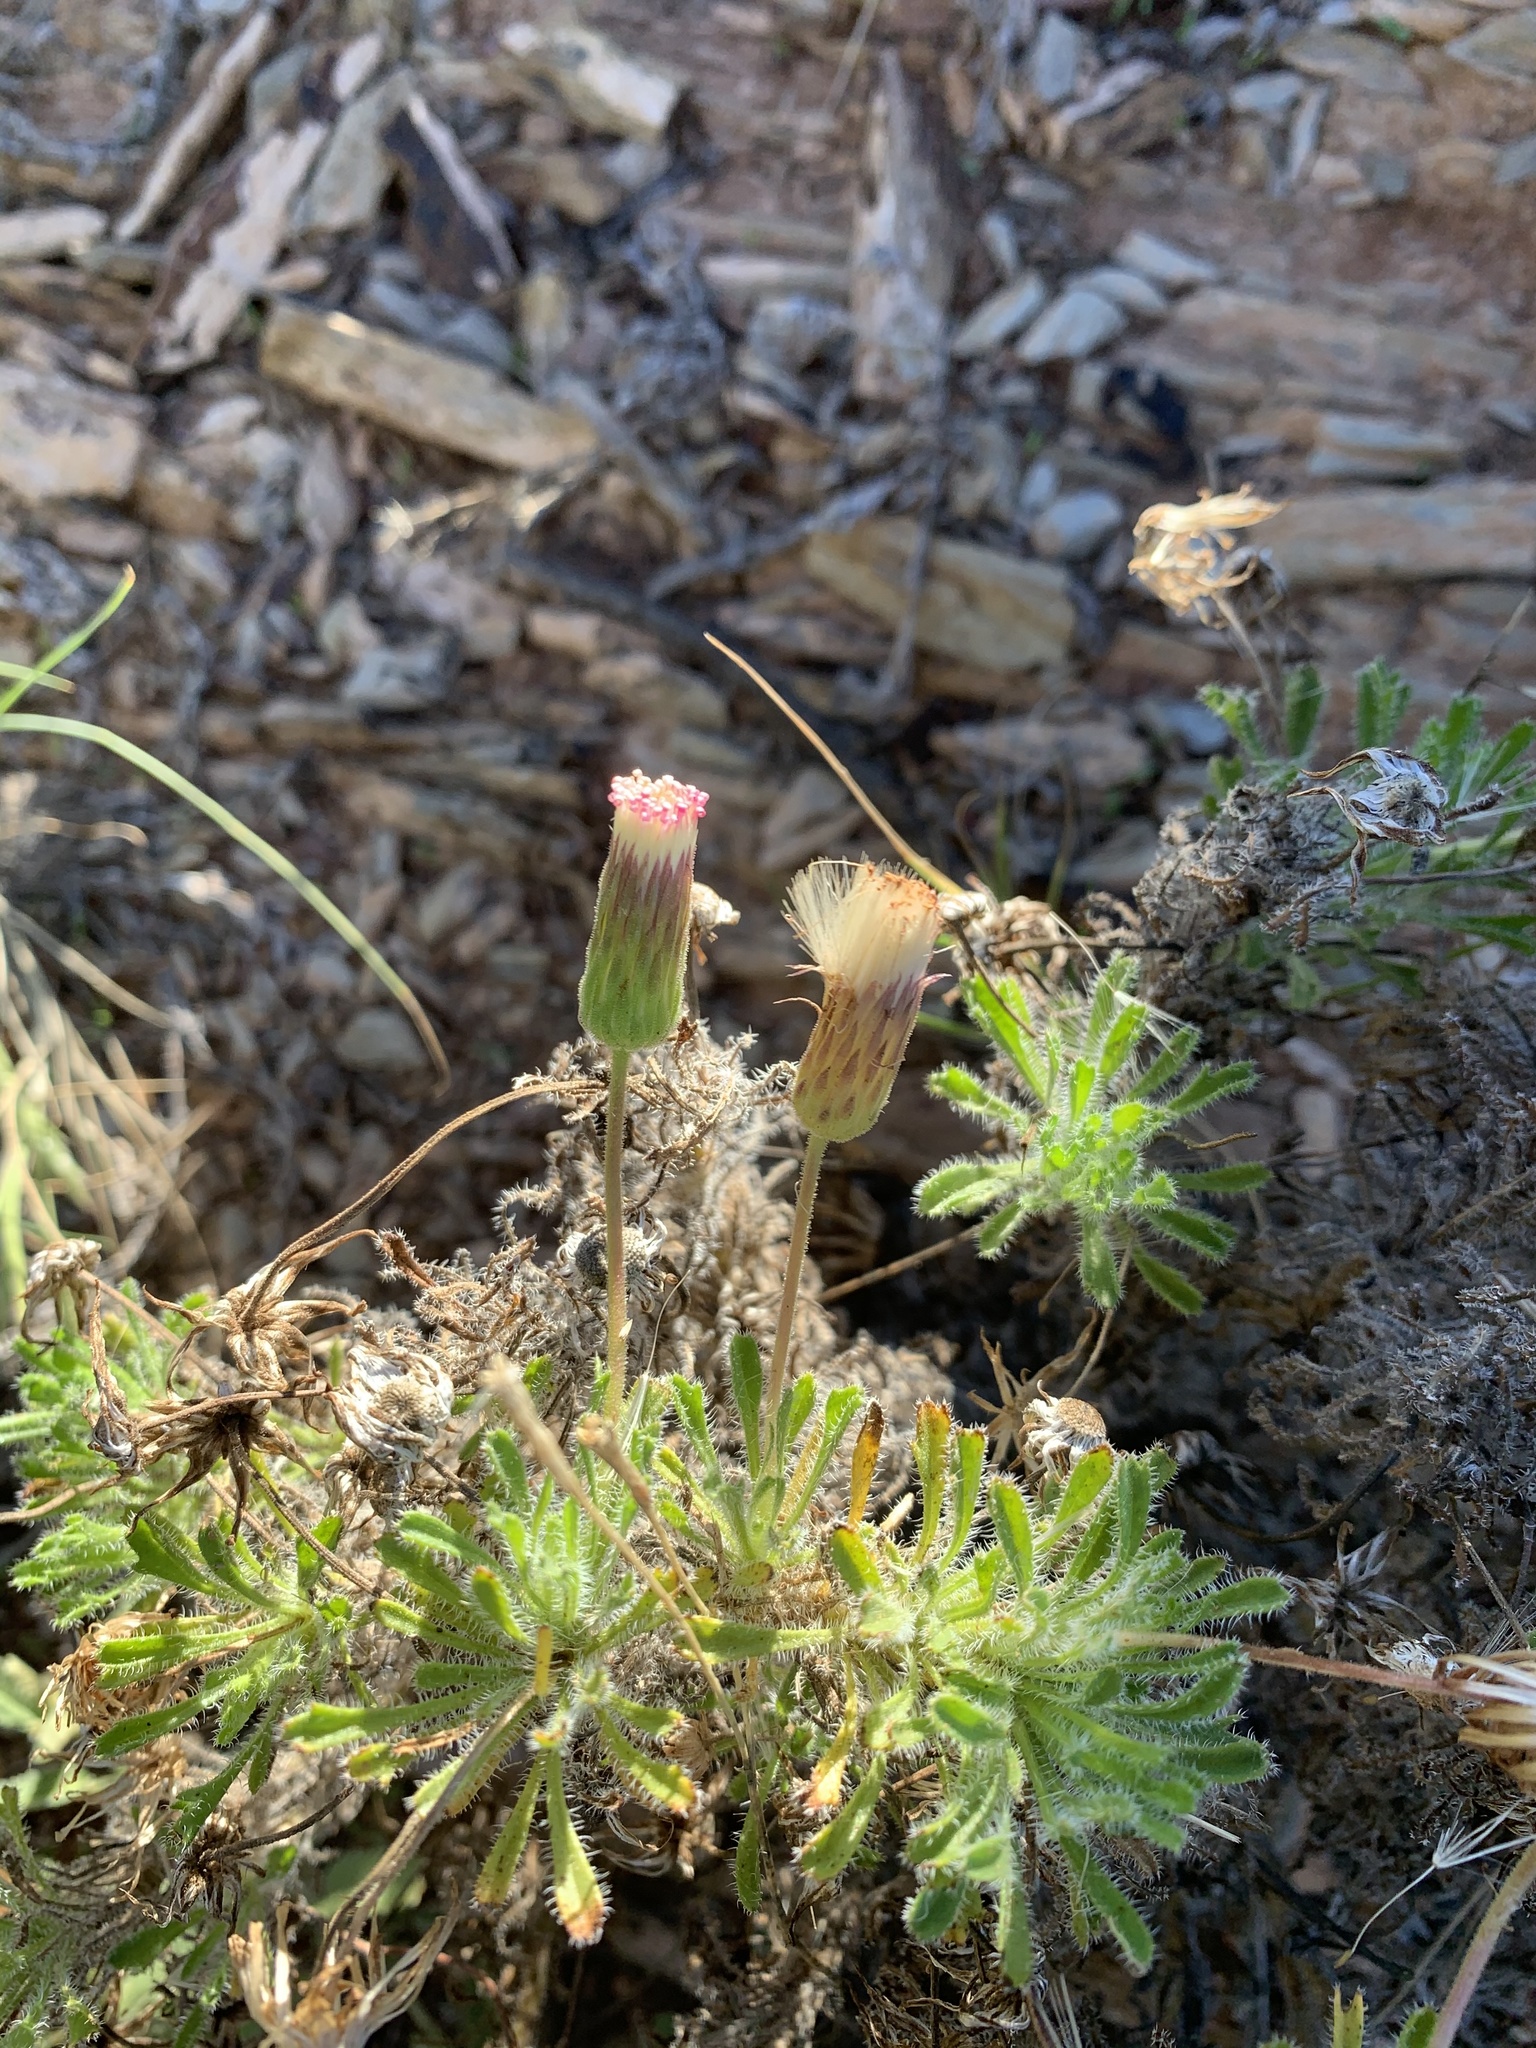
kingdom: Plantae
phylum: Tracheophyta
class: Magnoliopsida
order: Asterales
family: Asteraceae
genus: Ixiochlamys
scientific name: Ixiochlamys cuneifolia
